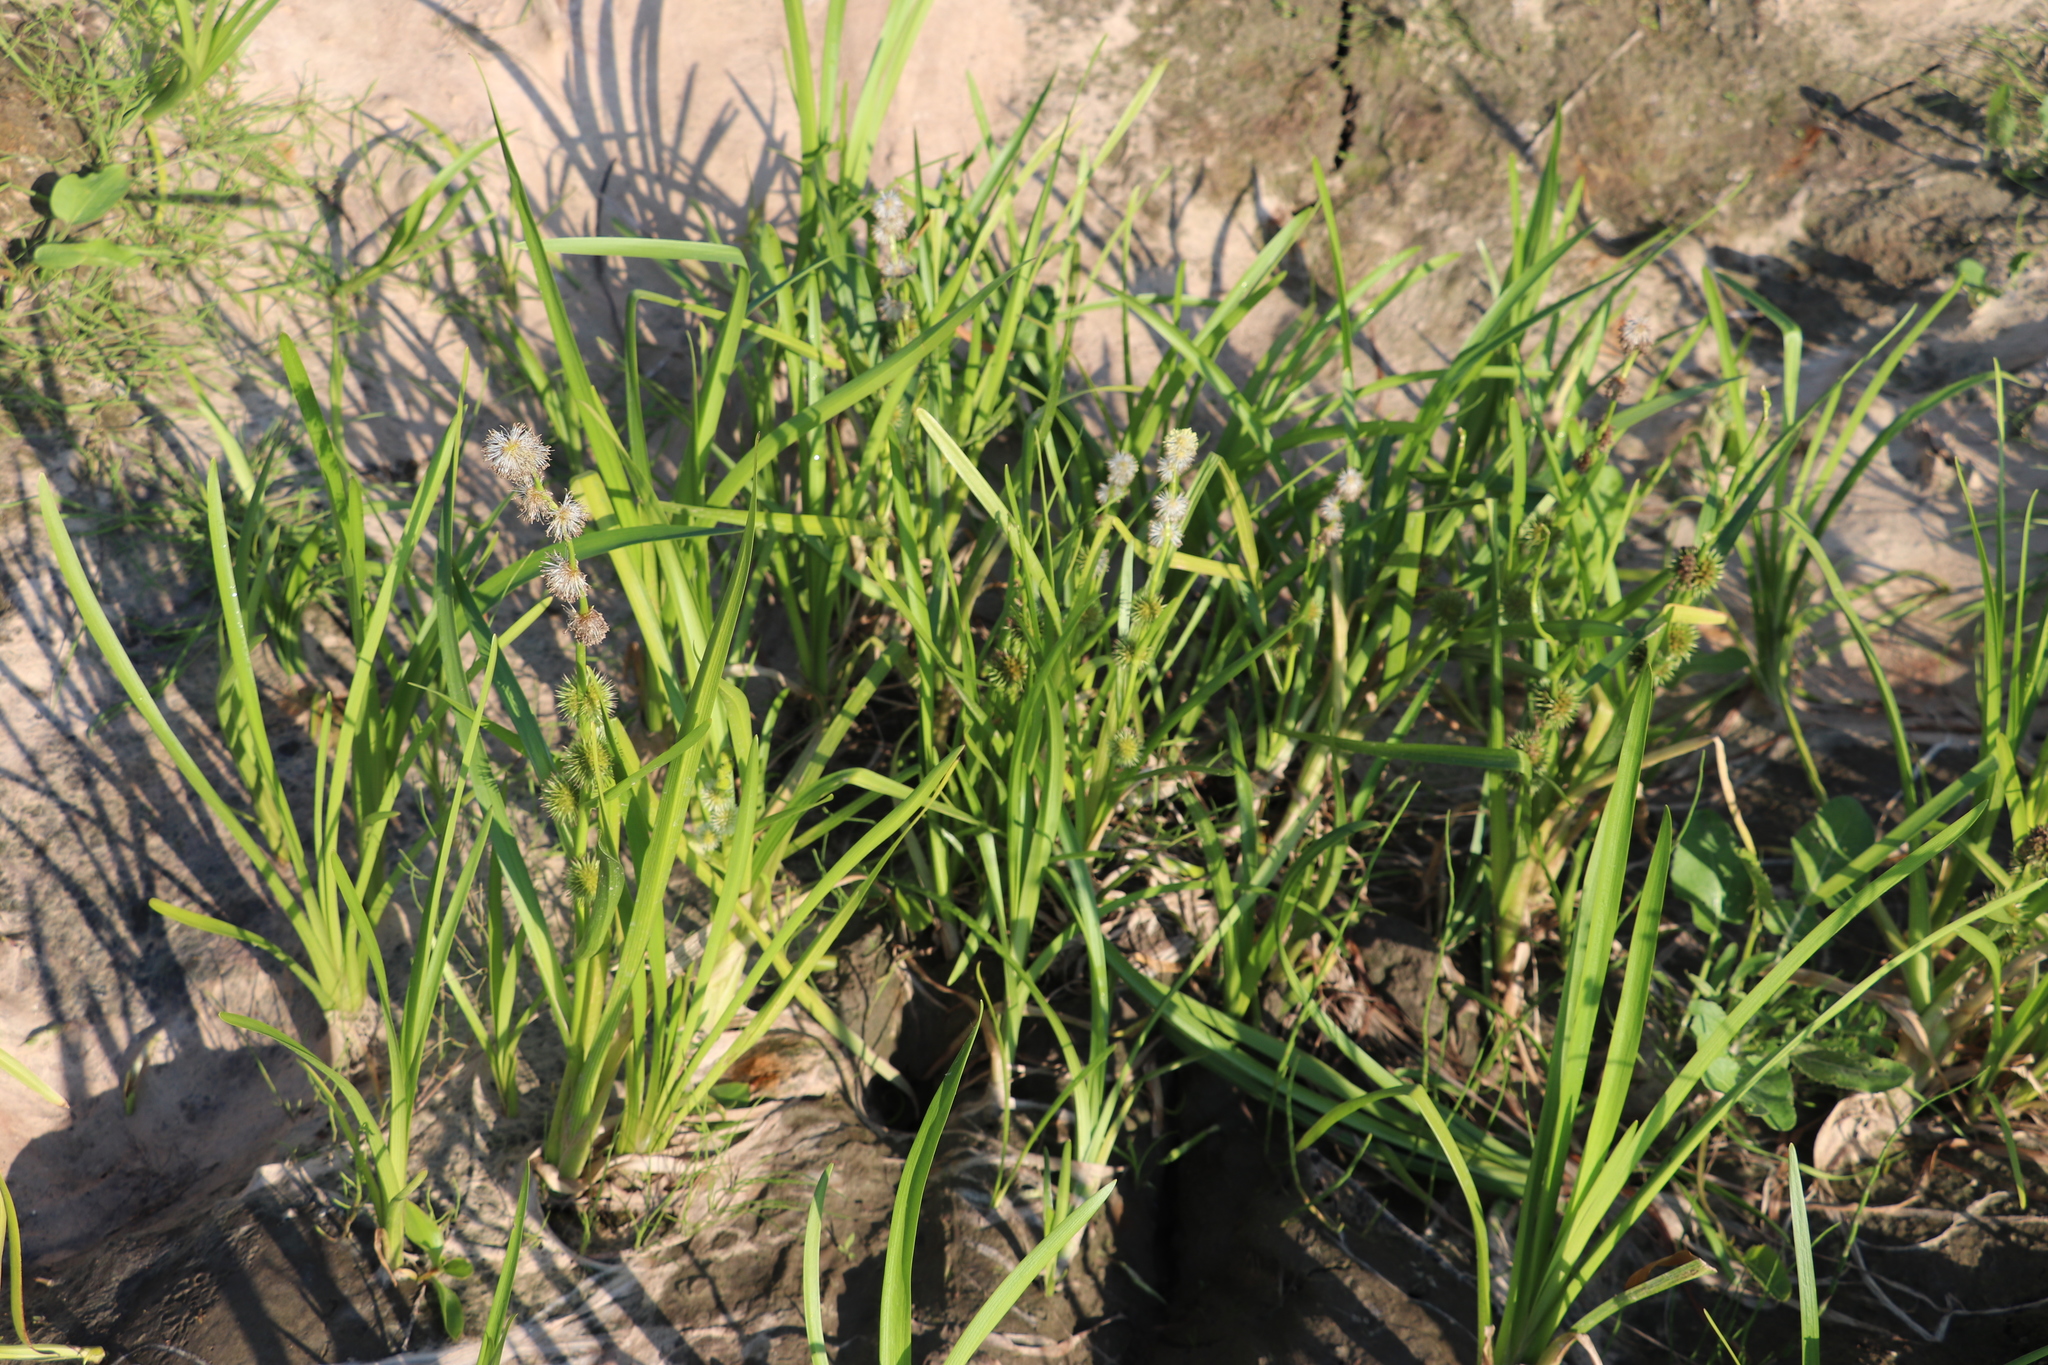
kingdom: Plantae
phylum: Tracheophyta
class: Liliopsida
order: Poales
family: Typhaceae
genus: Sparganium
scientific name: Sparganium emersum
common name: Unbranched bur-reed
